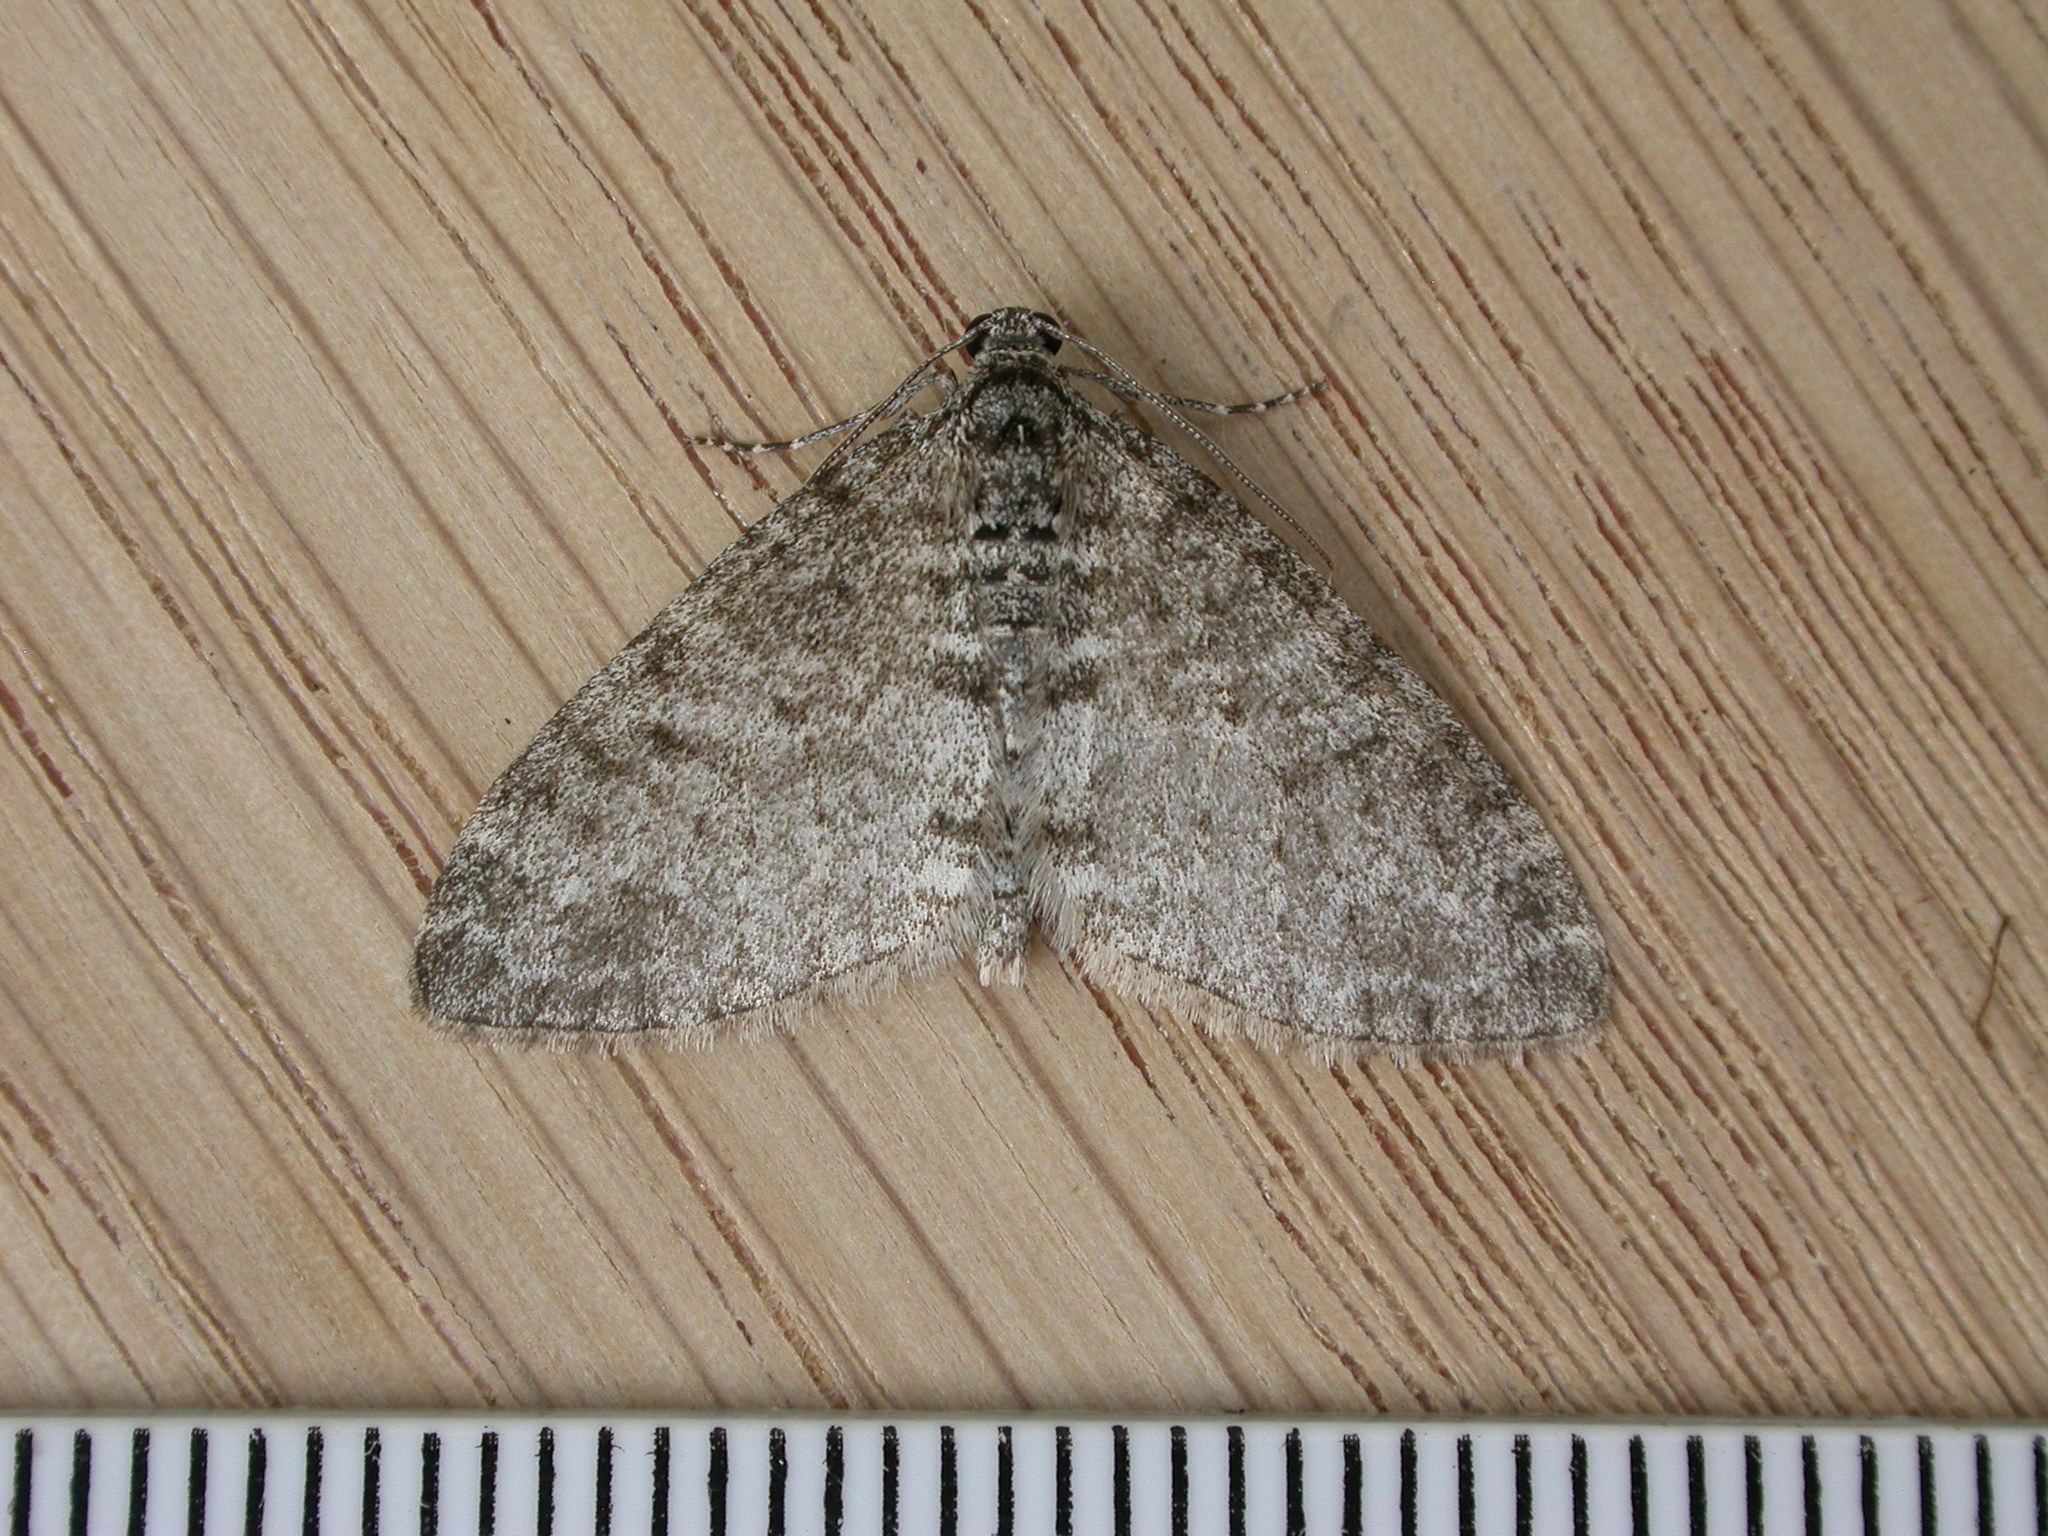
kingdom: Animalia
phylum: Arthropoda
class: Insecta
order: Lepidoptera
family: Geometridae
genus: Lobophora
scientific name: Lobophora halterata
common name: Seraphim
